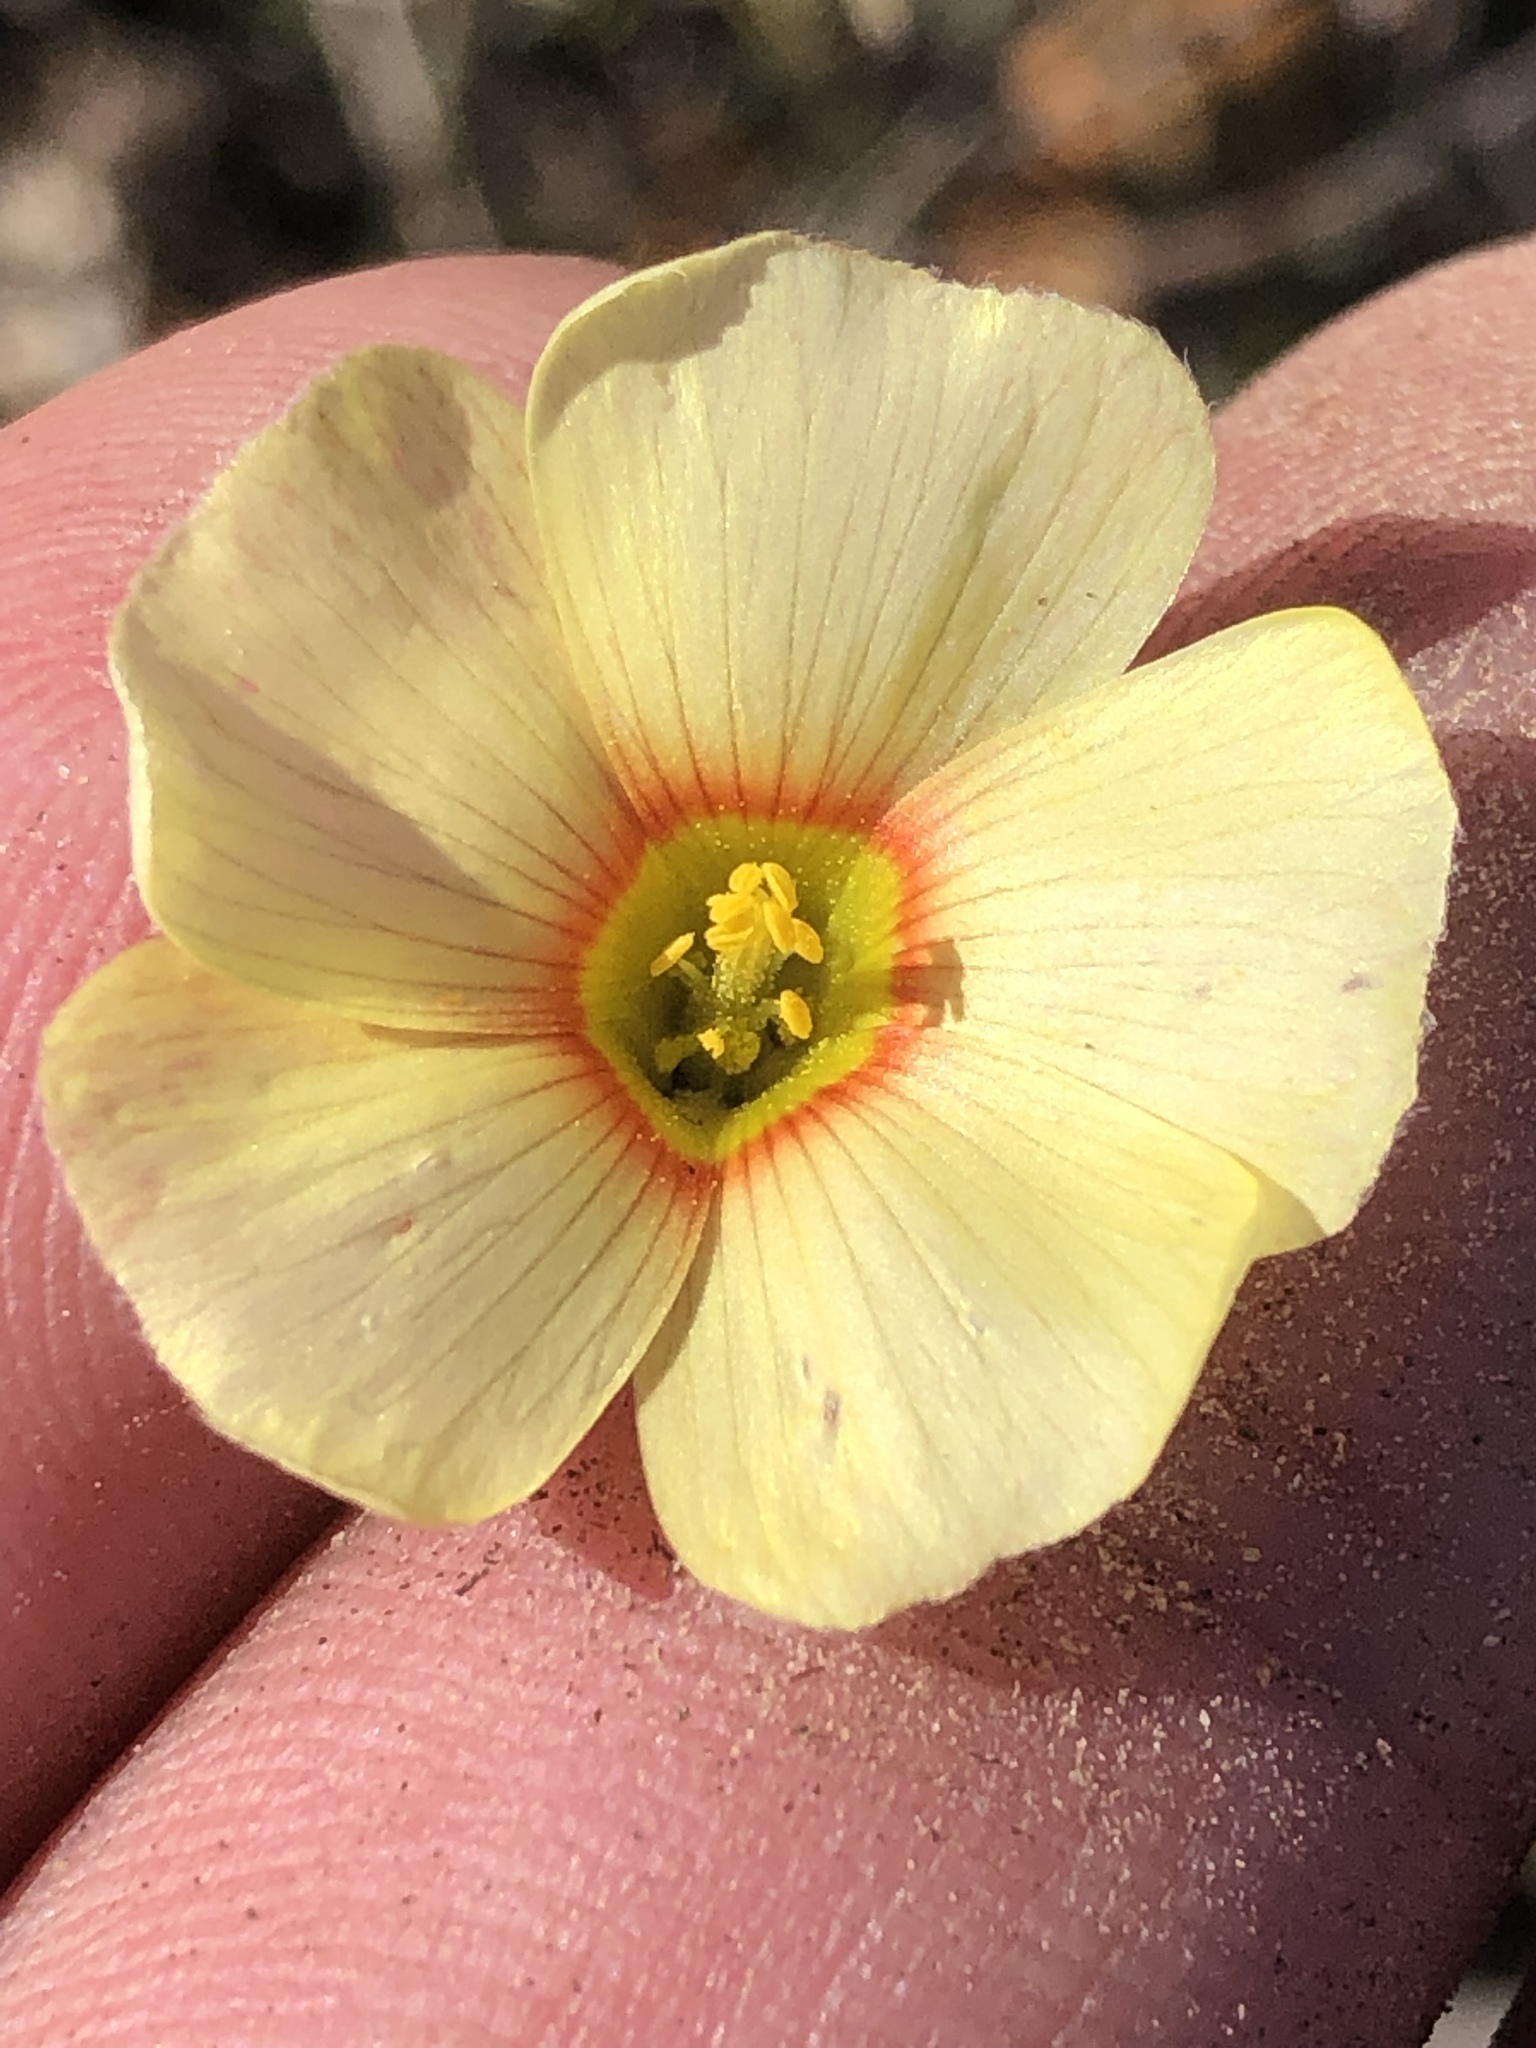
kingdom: Plantae
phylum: Tracheophyta
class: Magnoliopsida
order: Oxalidales
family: Oxalidaceae
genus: Oxalis
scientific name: Oxalis obtusa
